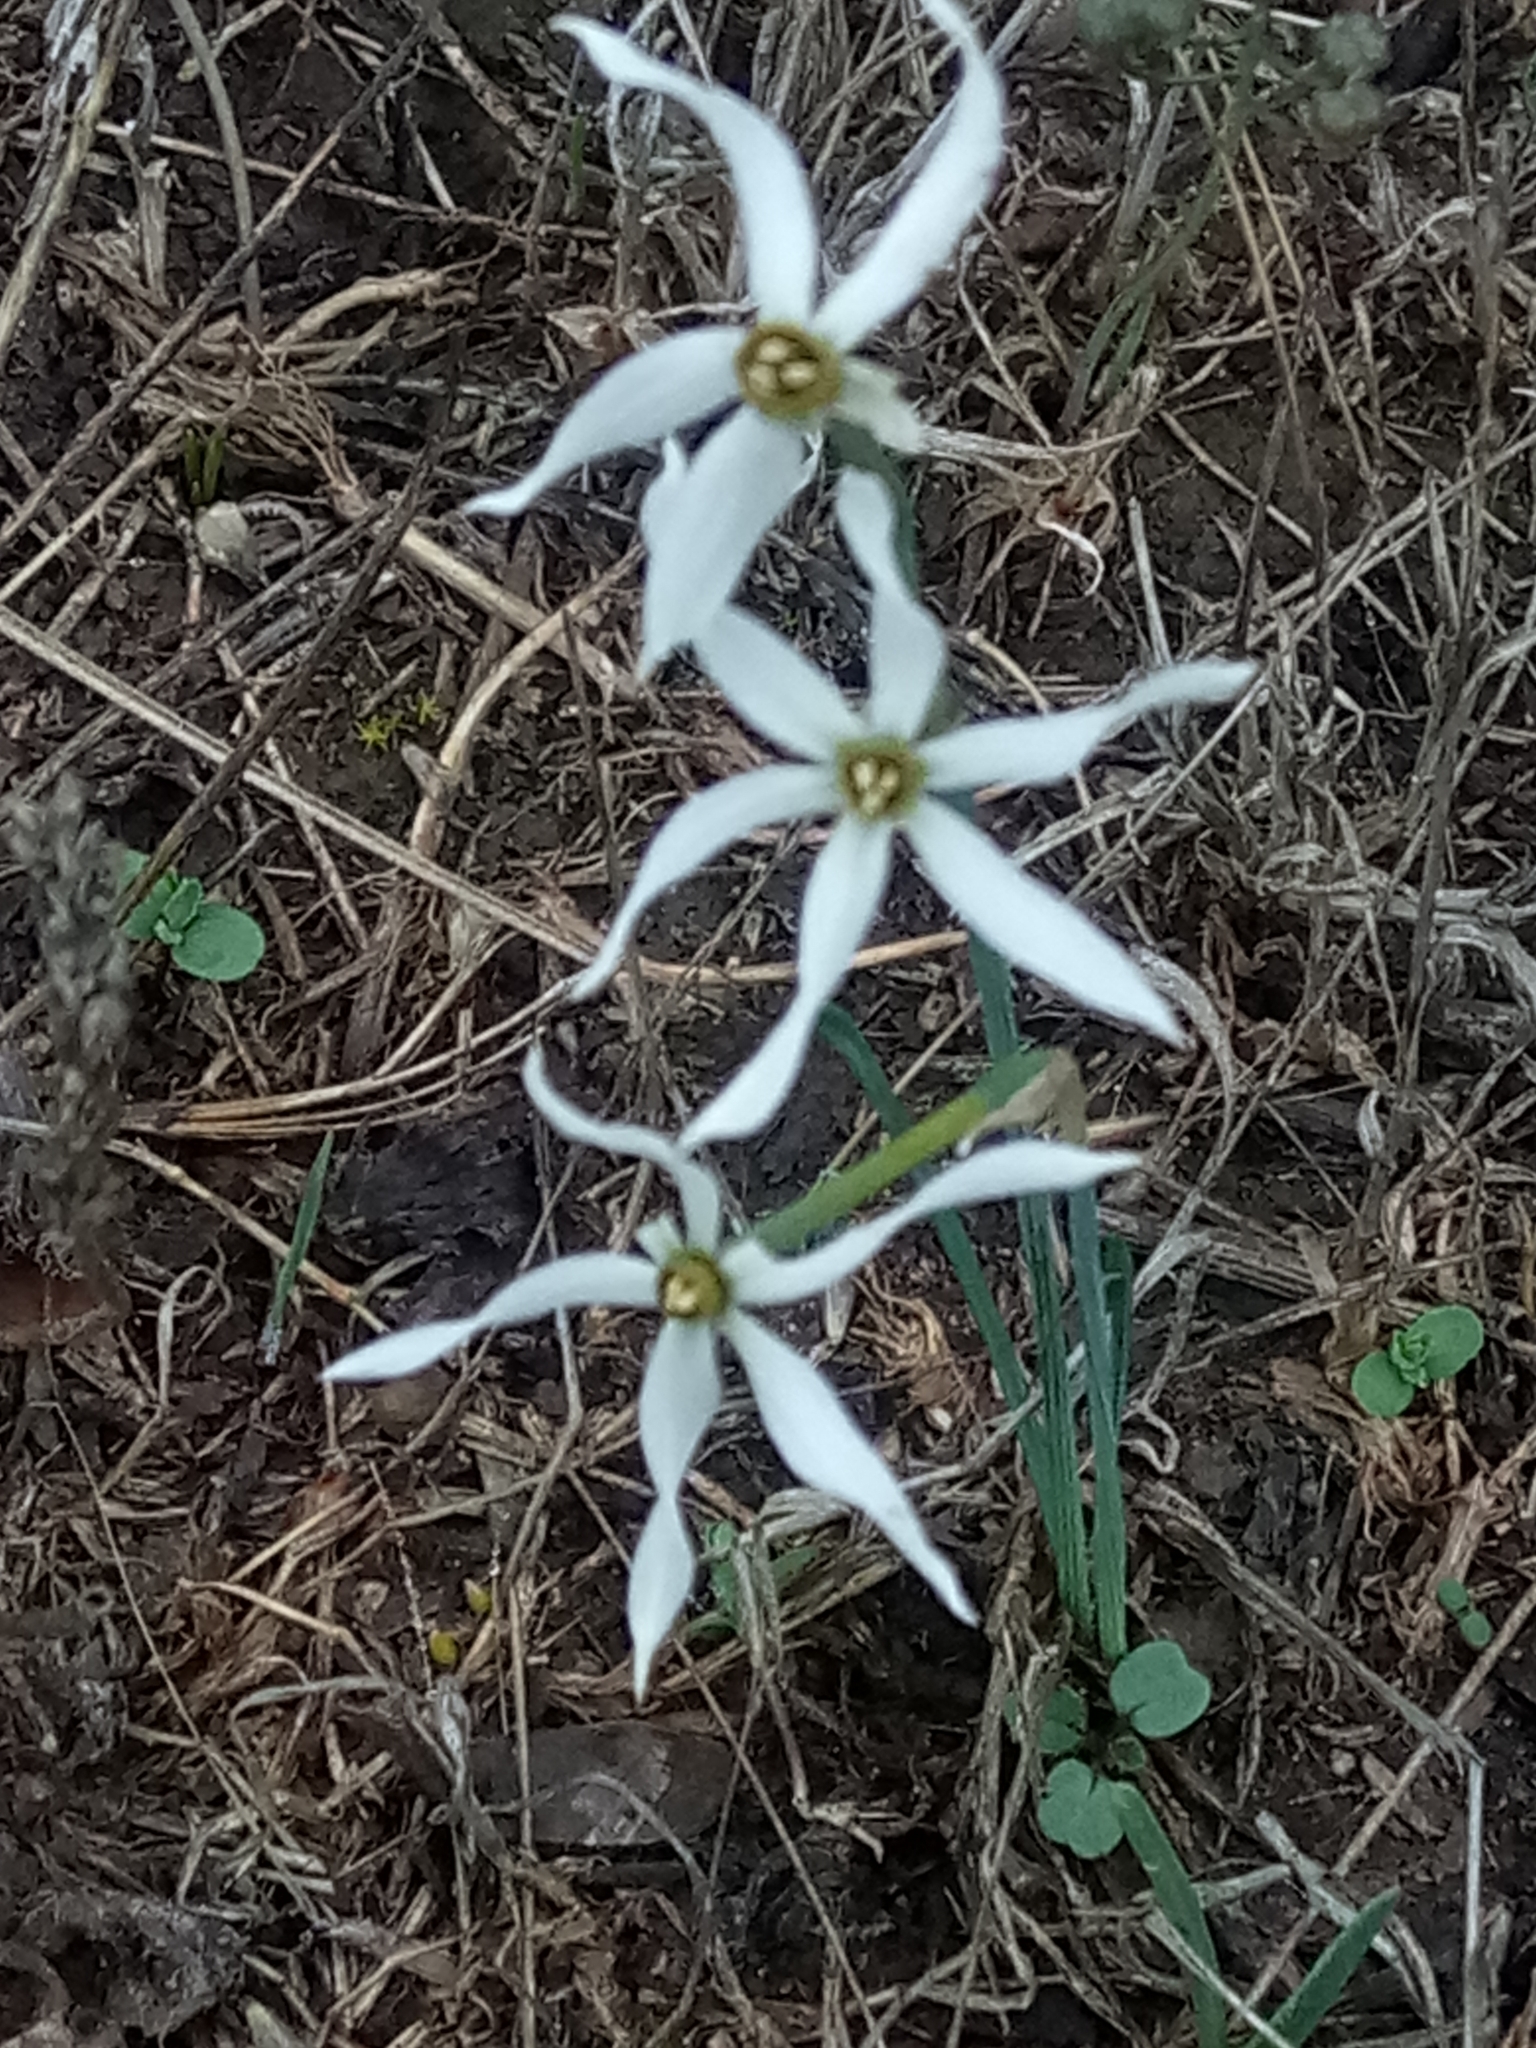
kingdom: Plantae
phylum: Tracheophyta
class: Liliopsida
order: Asparagales
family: Amaryllidaceae
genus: Narcissus
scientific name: Narcissus obsoletus
